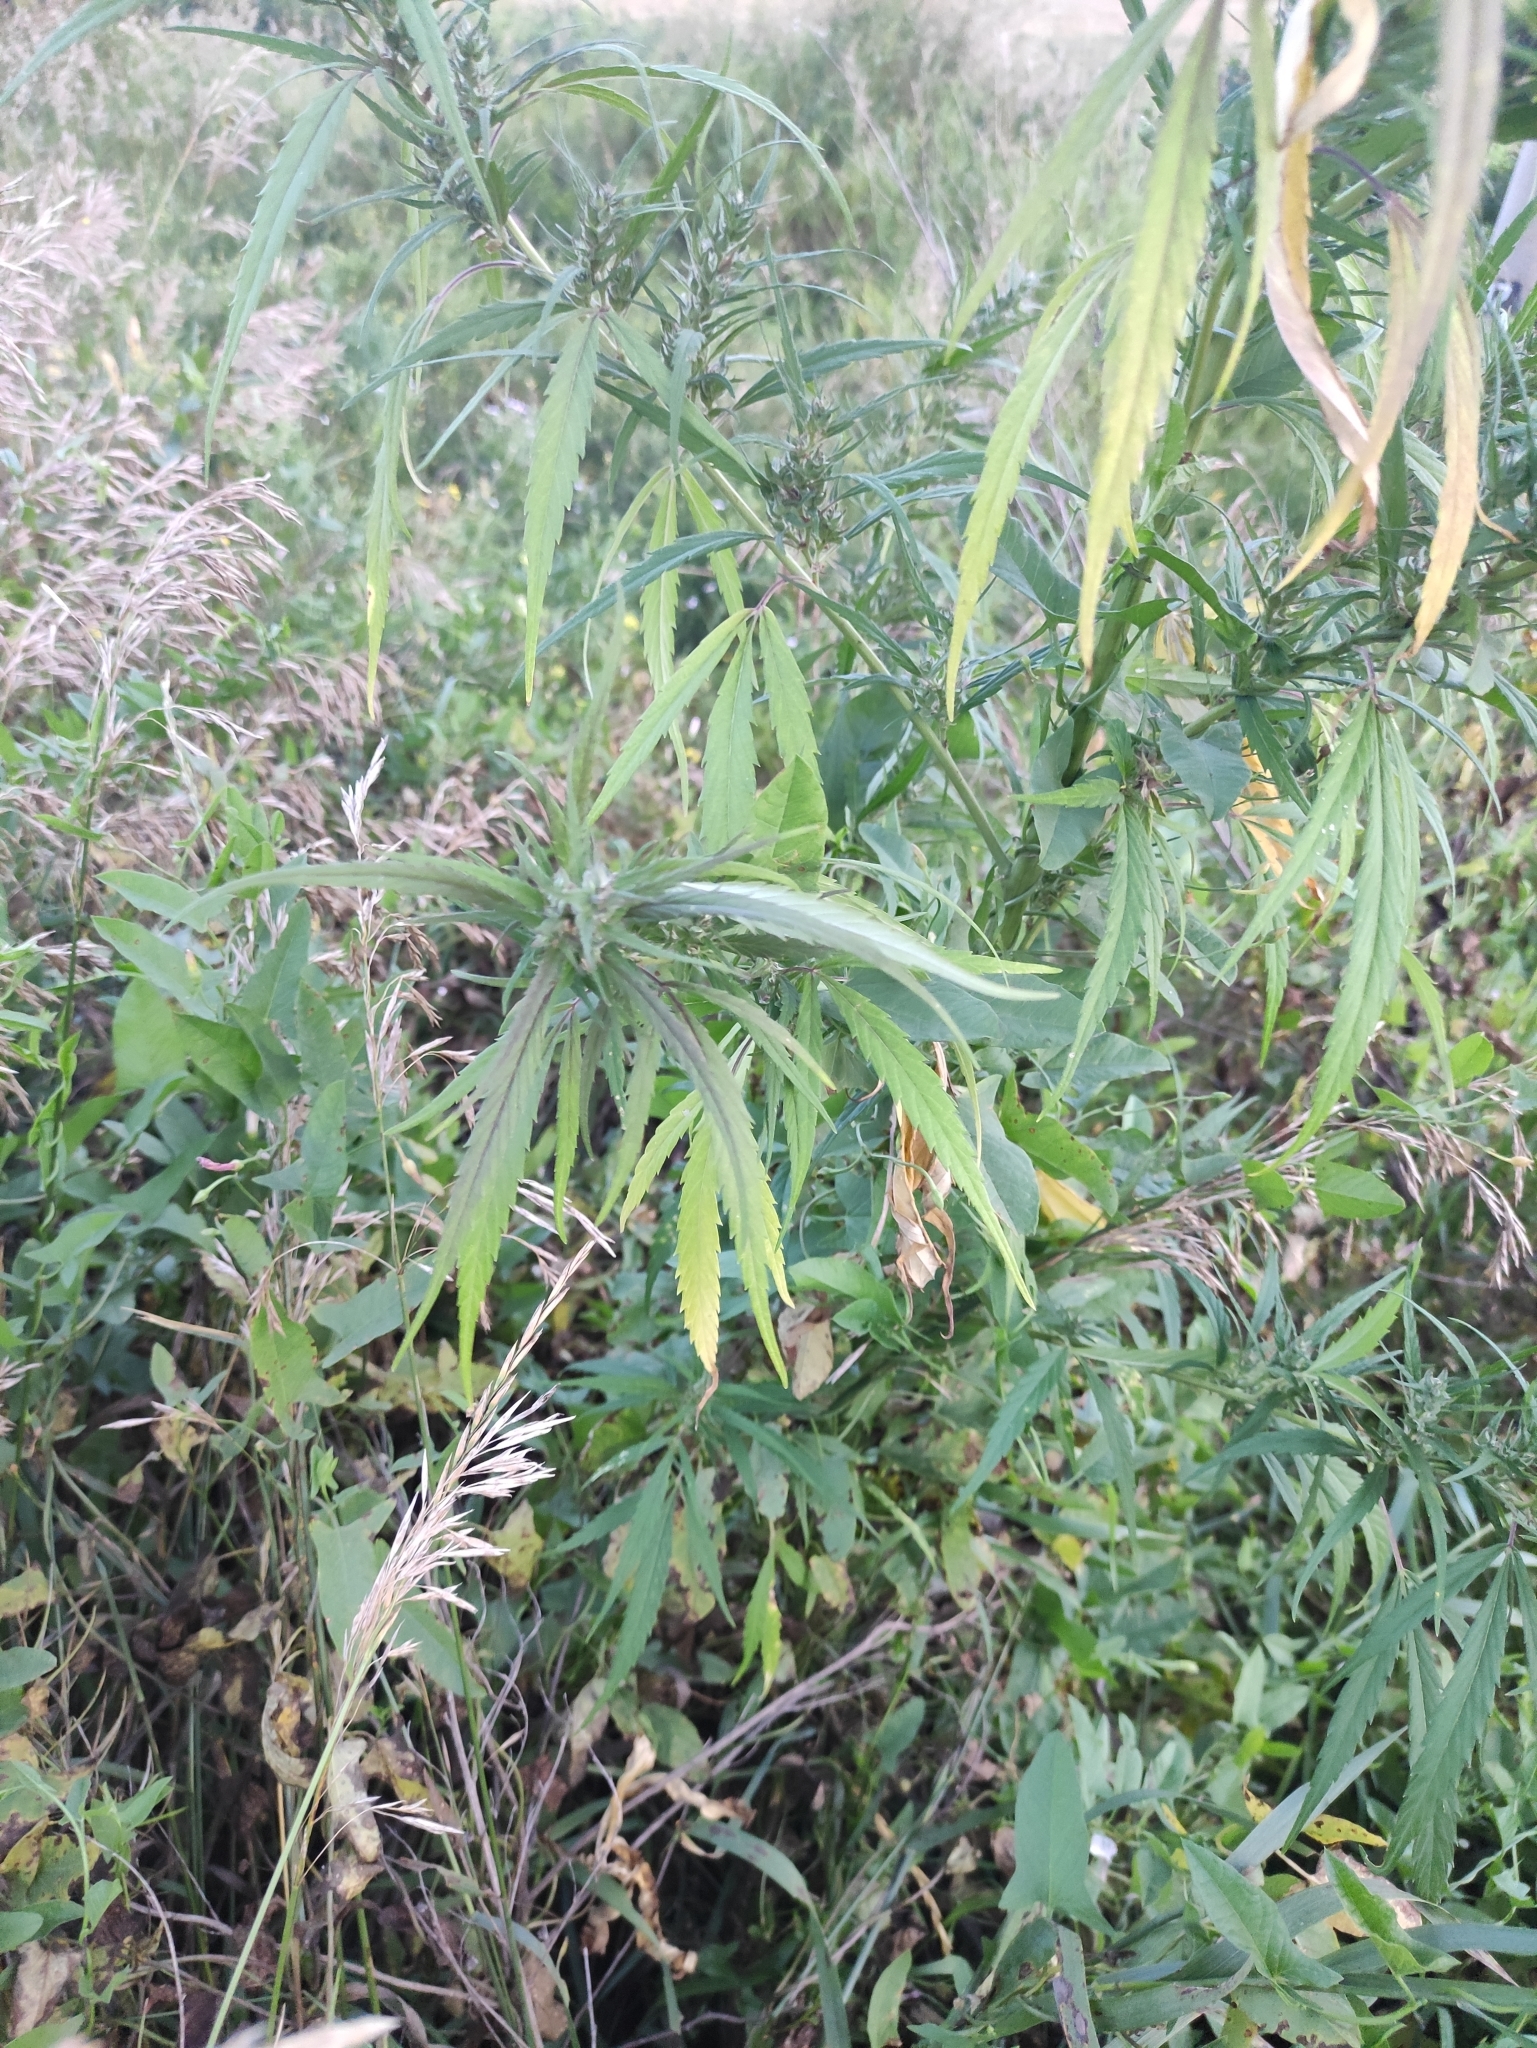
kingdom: Plantae
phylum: Tracheophyta
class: Magnoliopsida
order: Rosales
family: Cannabaceae
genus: Cannabis
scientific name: Cannabis sativa
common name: Hemp
